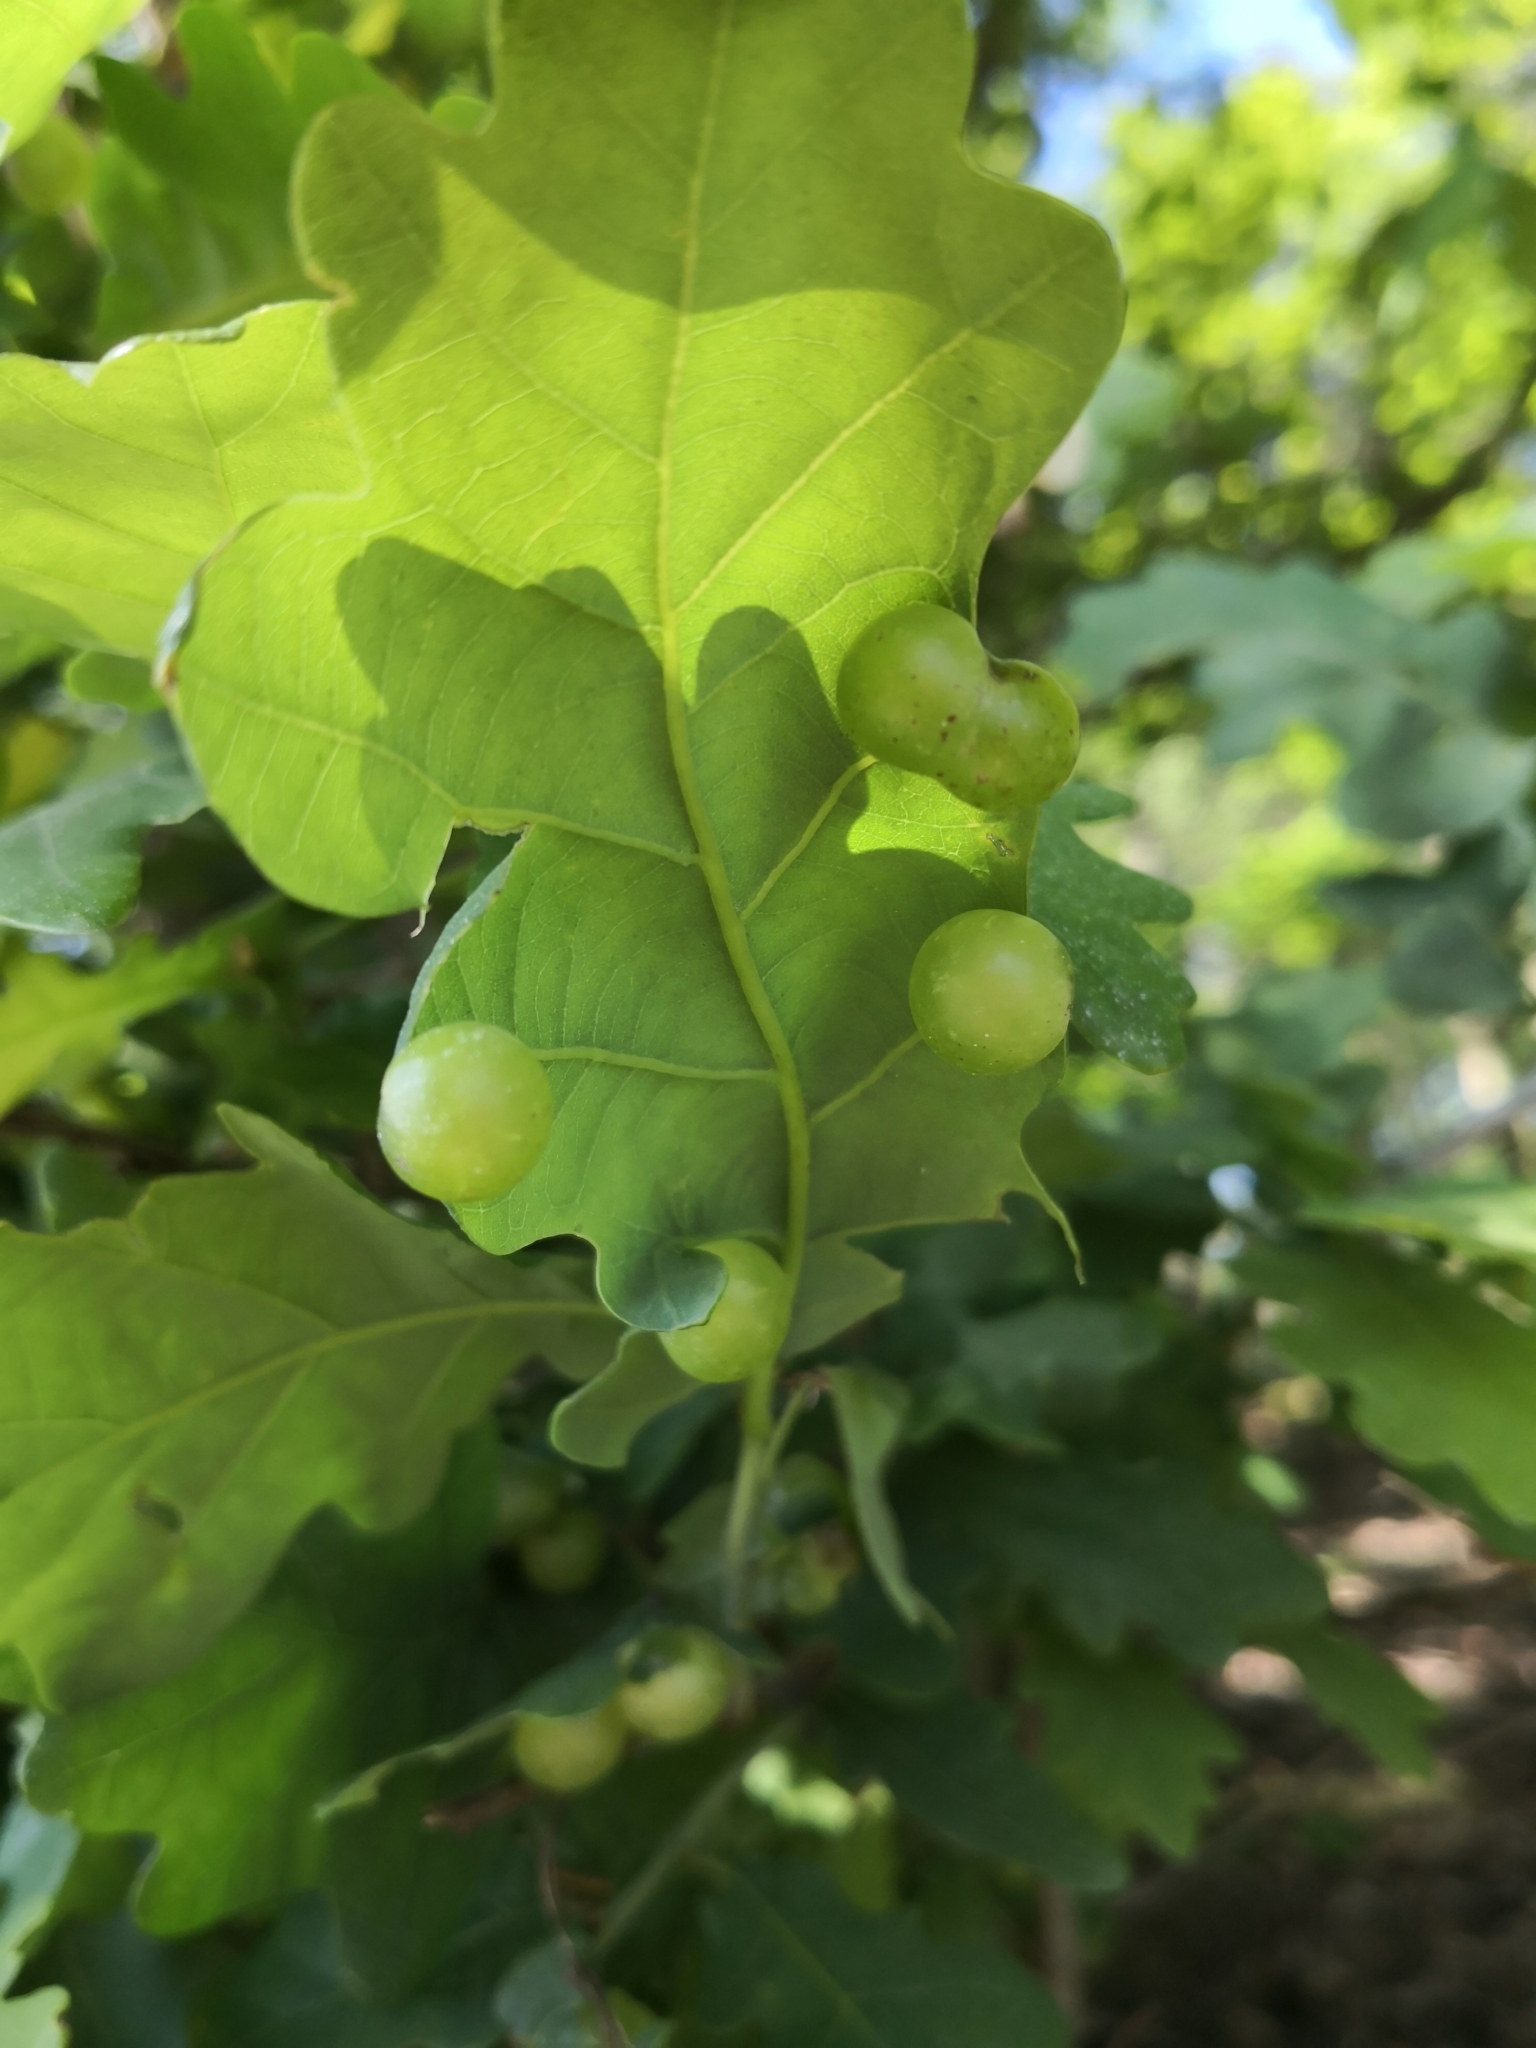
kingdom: Animalia
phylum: Arthropoda
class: Insecta
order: Hymenoptera
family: Cynipidae
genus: Neuroterus
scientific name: Neuroterus quercusbaccarum
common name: Common spangle gall
